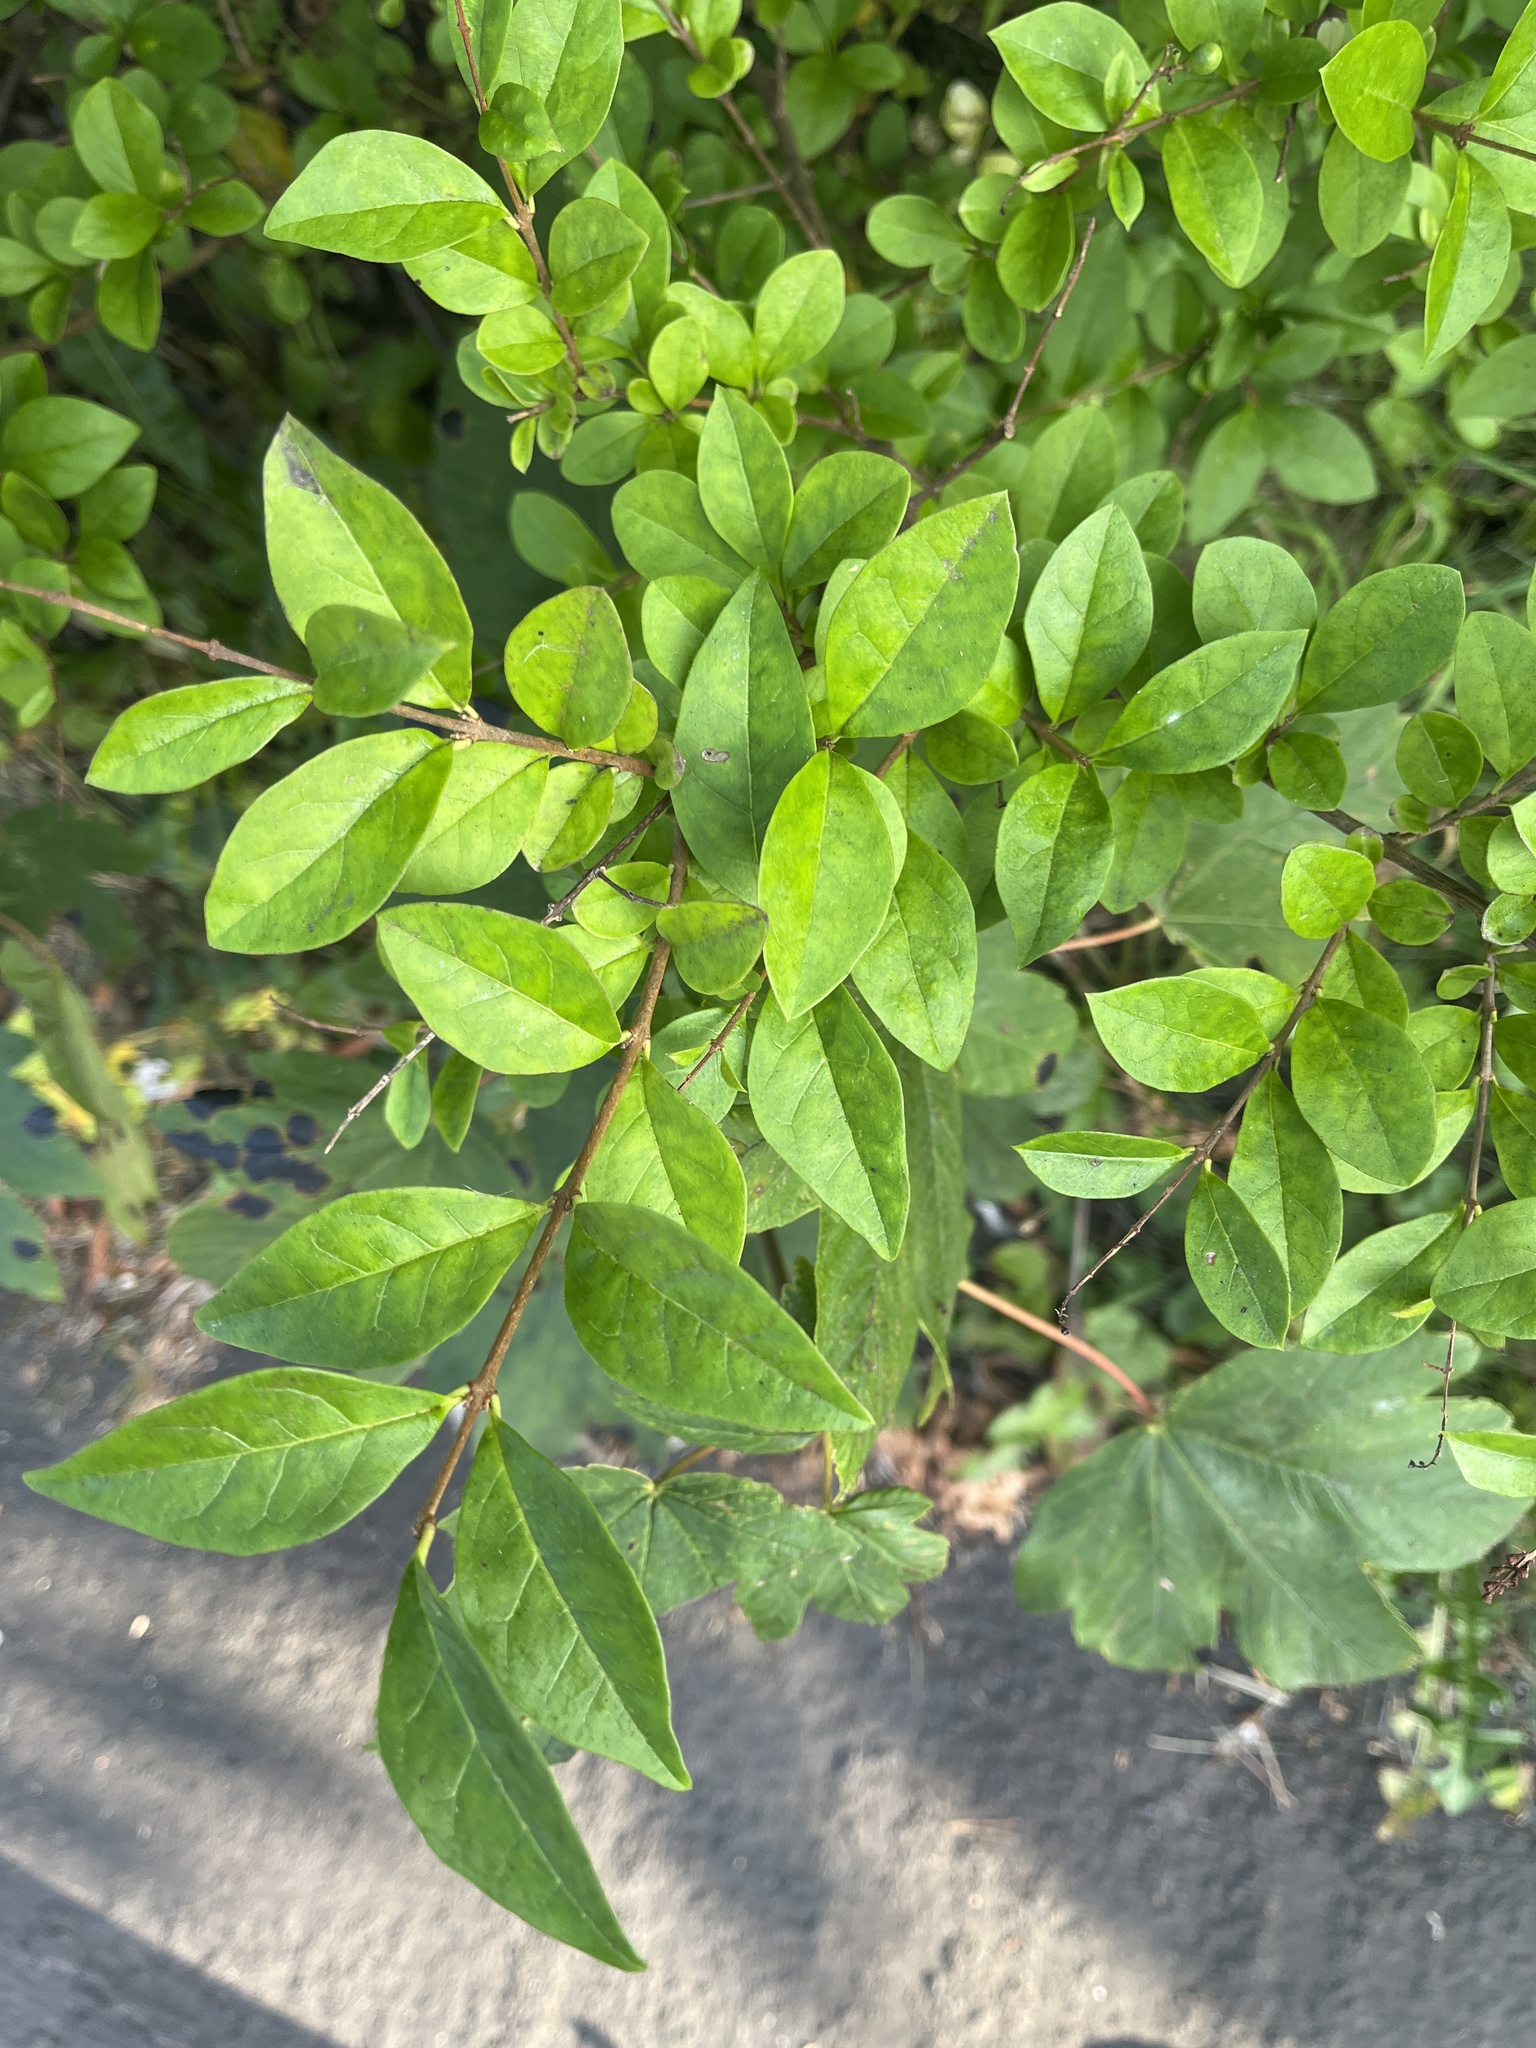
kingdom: Plantae
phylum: Tracheophyta
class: Magnoliopsida
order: Lamiales
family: Oleaceae
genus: Ligustrum
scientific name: Ligustrum ovalifolium
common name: California privet
